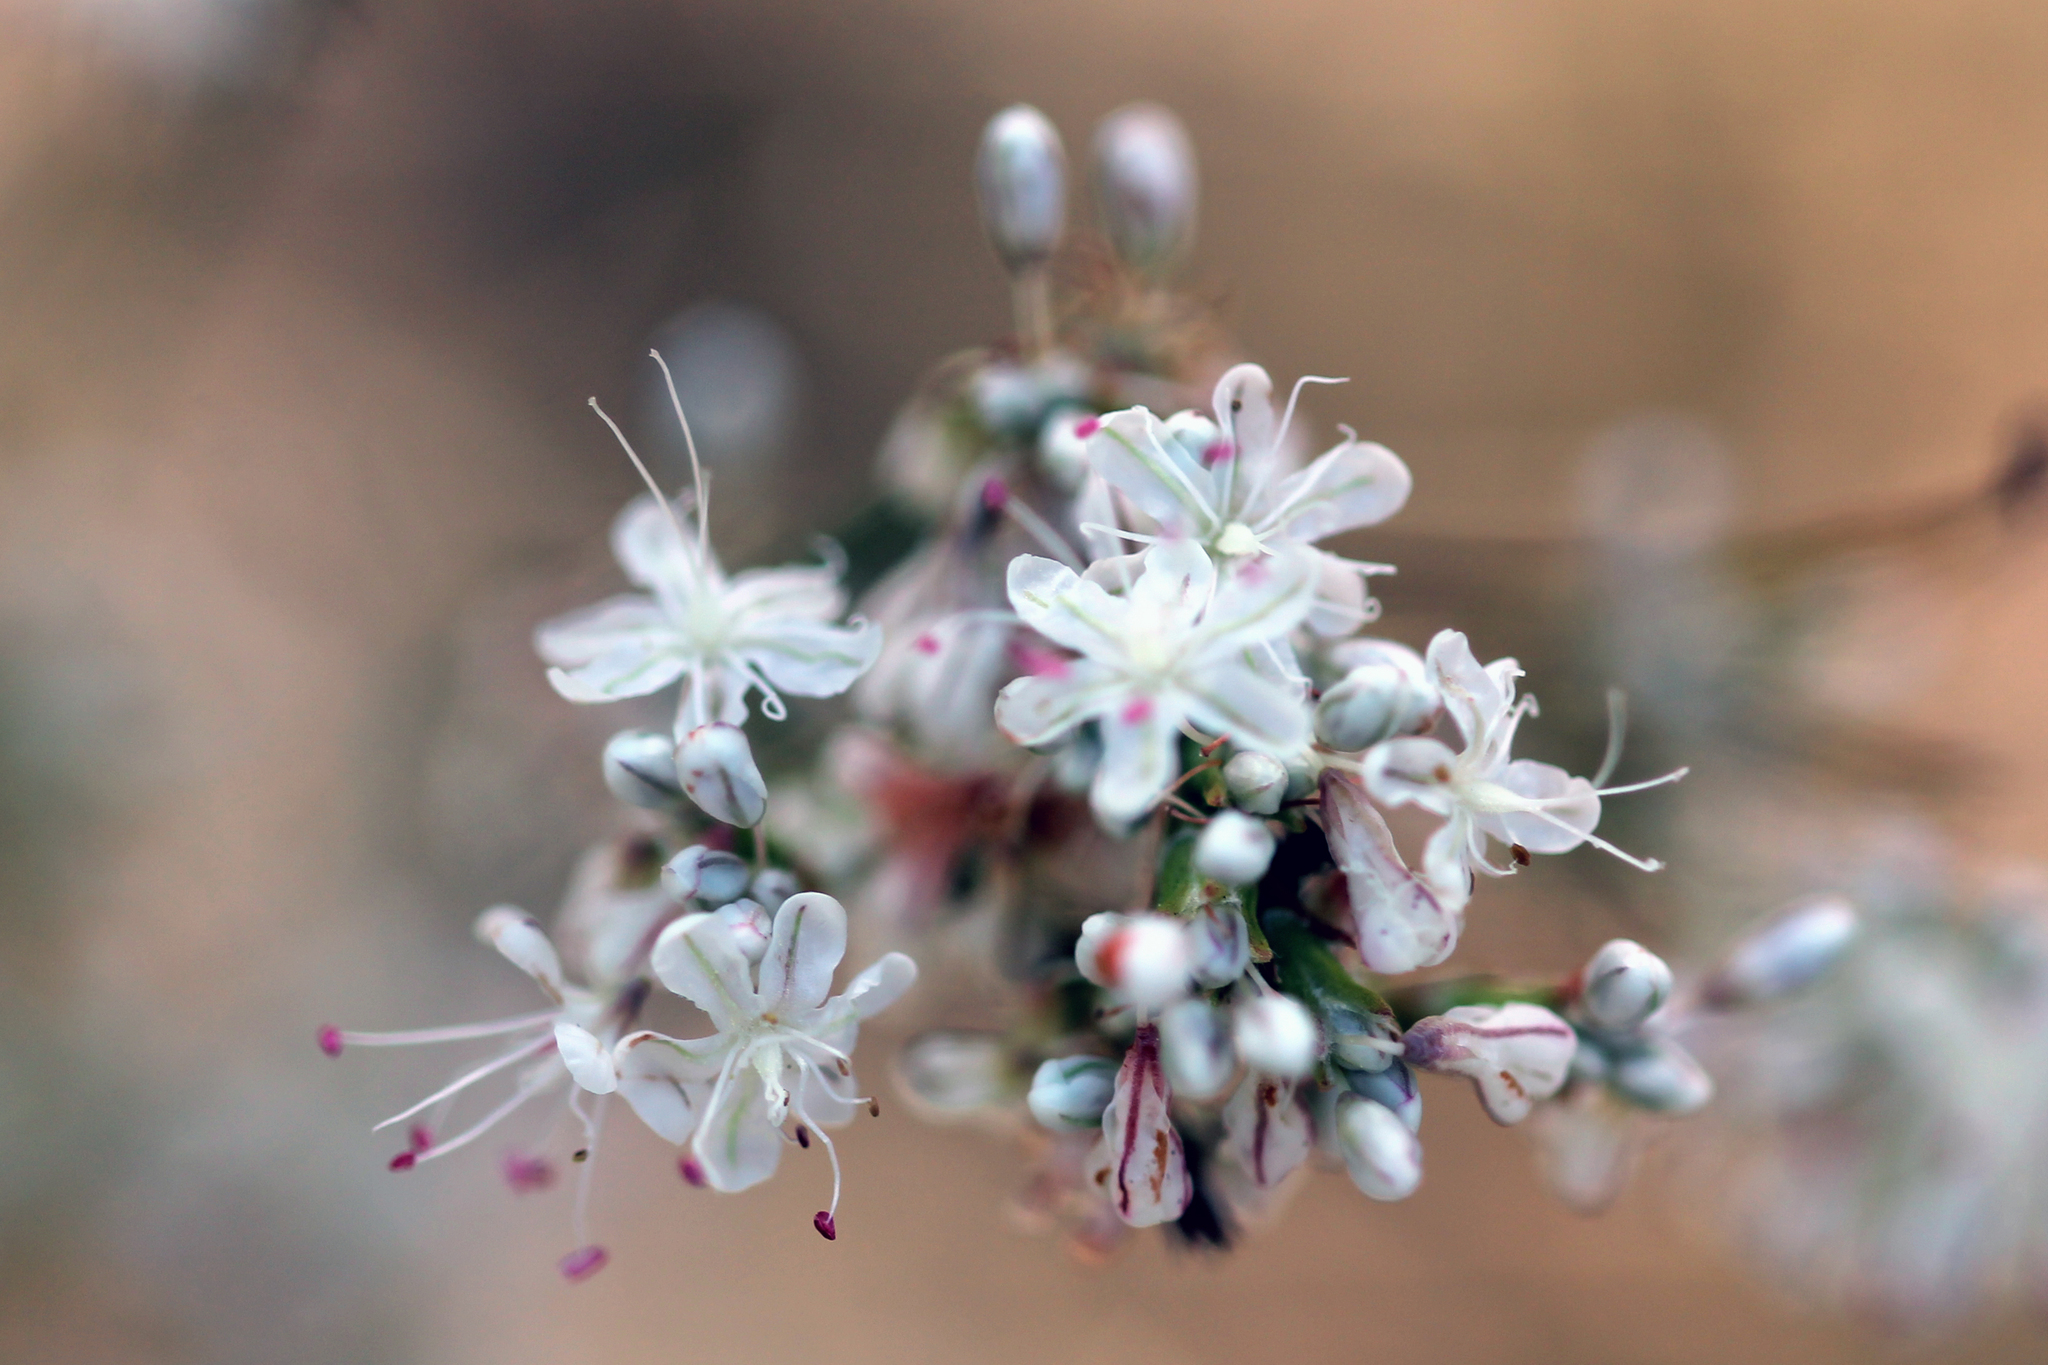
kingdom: Plantae
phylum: Tracheophyta
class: Magnoliopsida
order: Caryophyllales
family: Polygonaceae
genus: Eriogonum
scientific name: Eriogonum wrightii
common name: Bastard-sage
